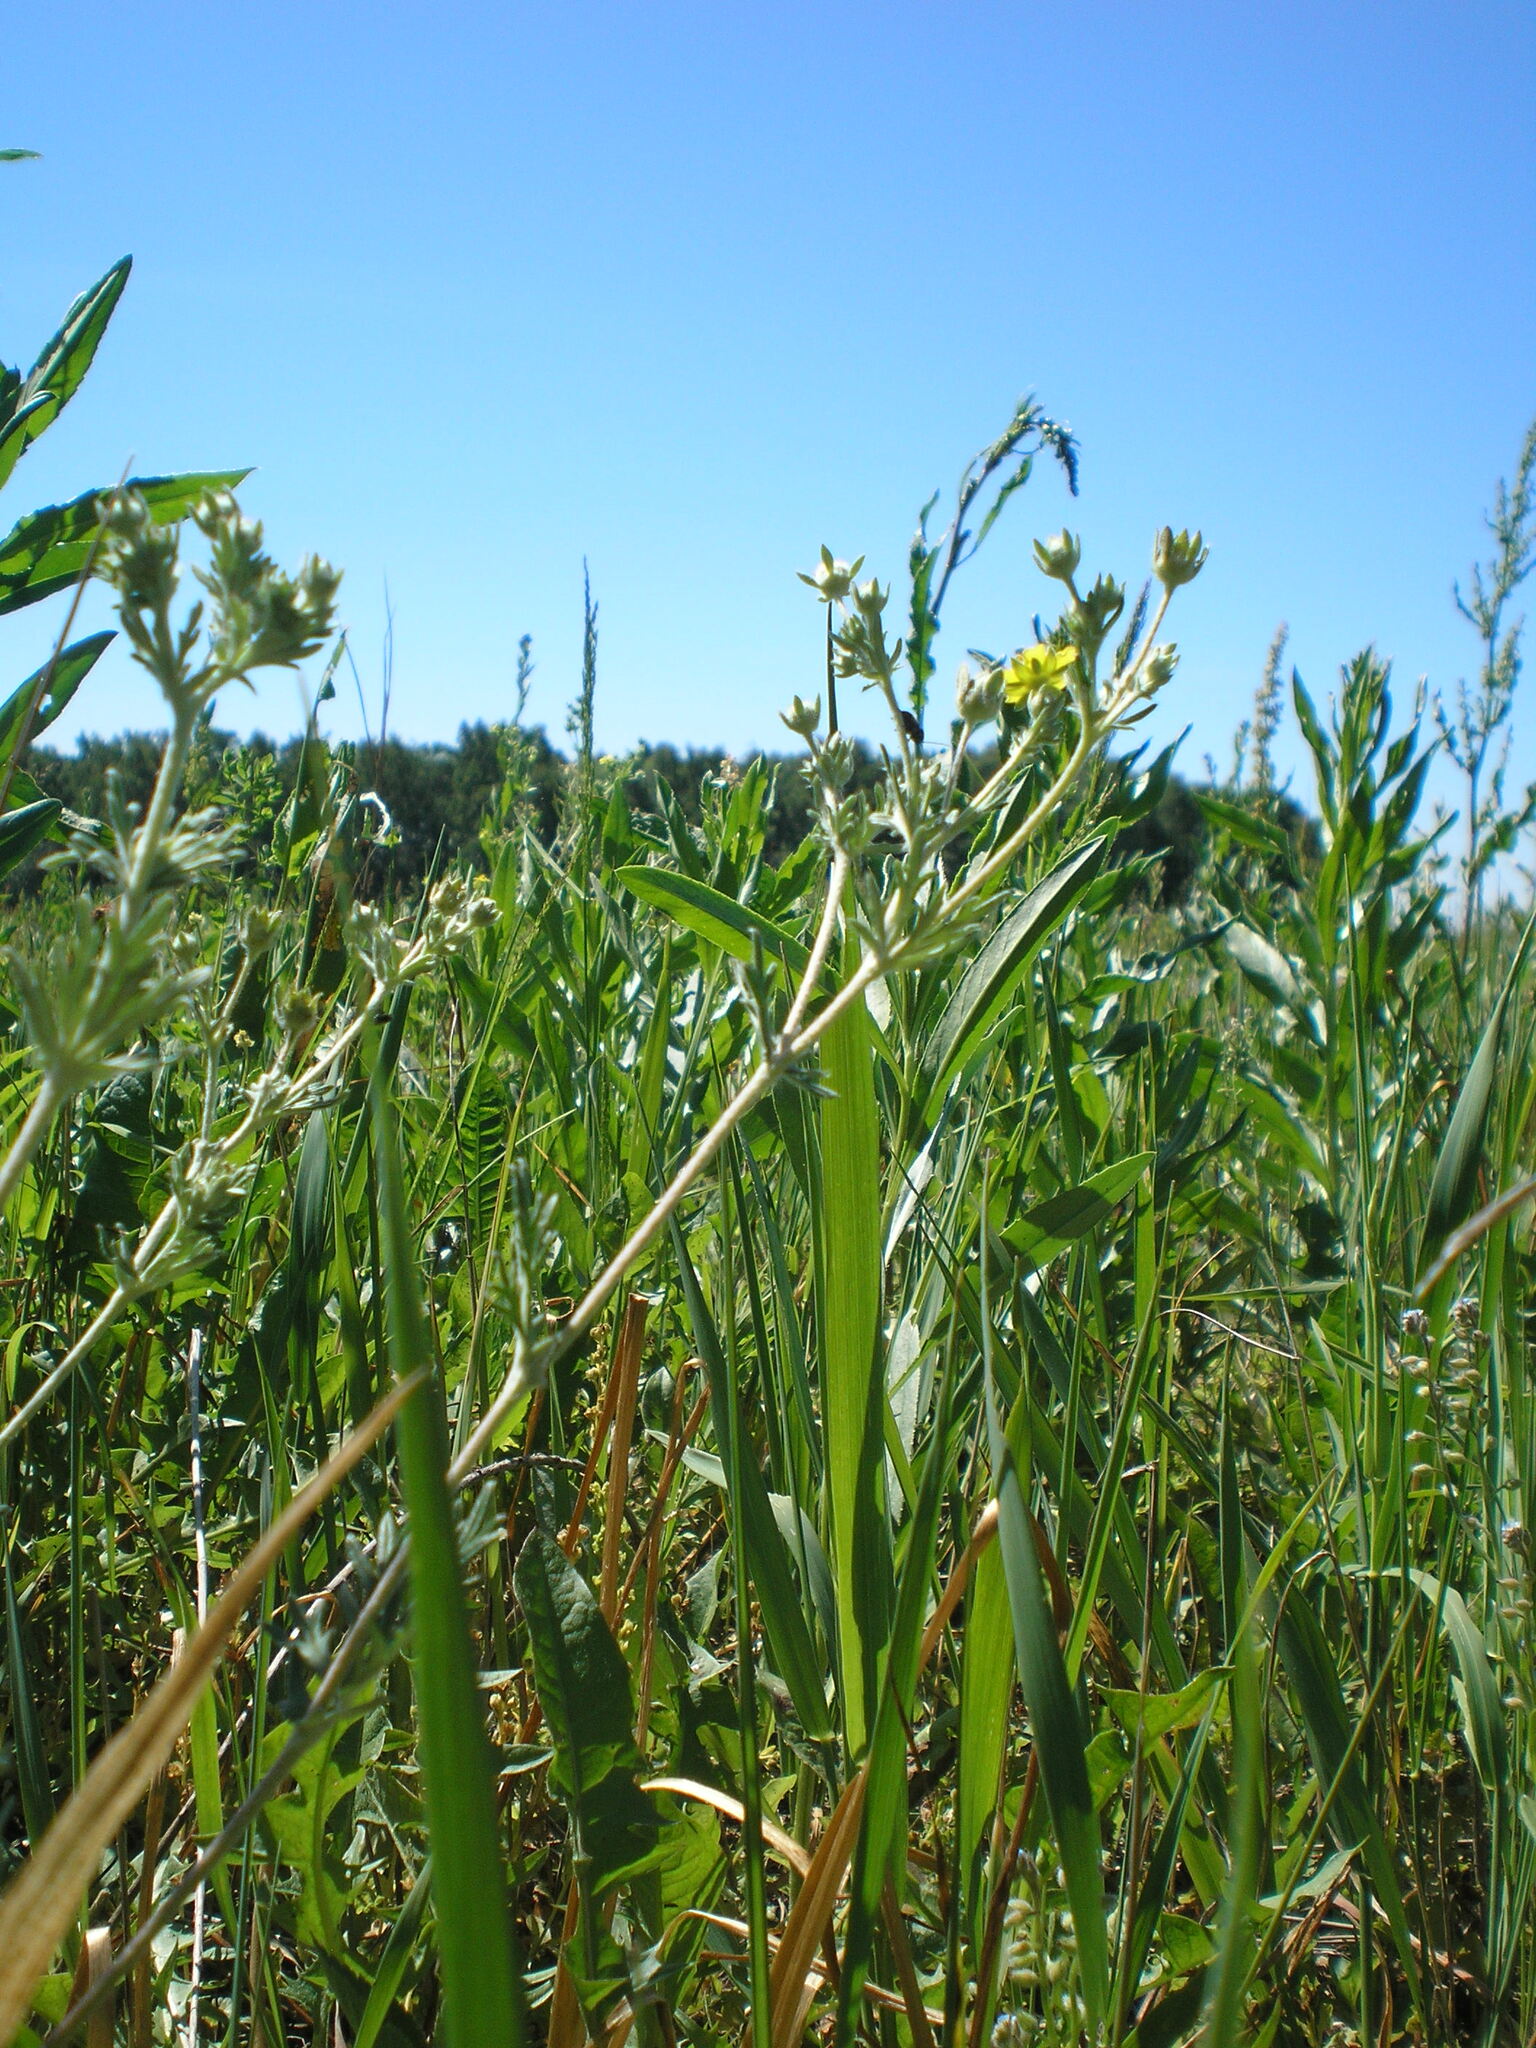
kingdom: Plantae
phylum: Tracheophyta
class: Magnoliopsida
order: Rosales
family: Rosaceae
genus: Potentilla
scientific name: Potentilla argentea
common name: Hoary cinquefoil
